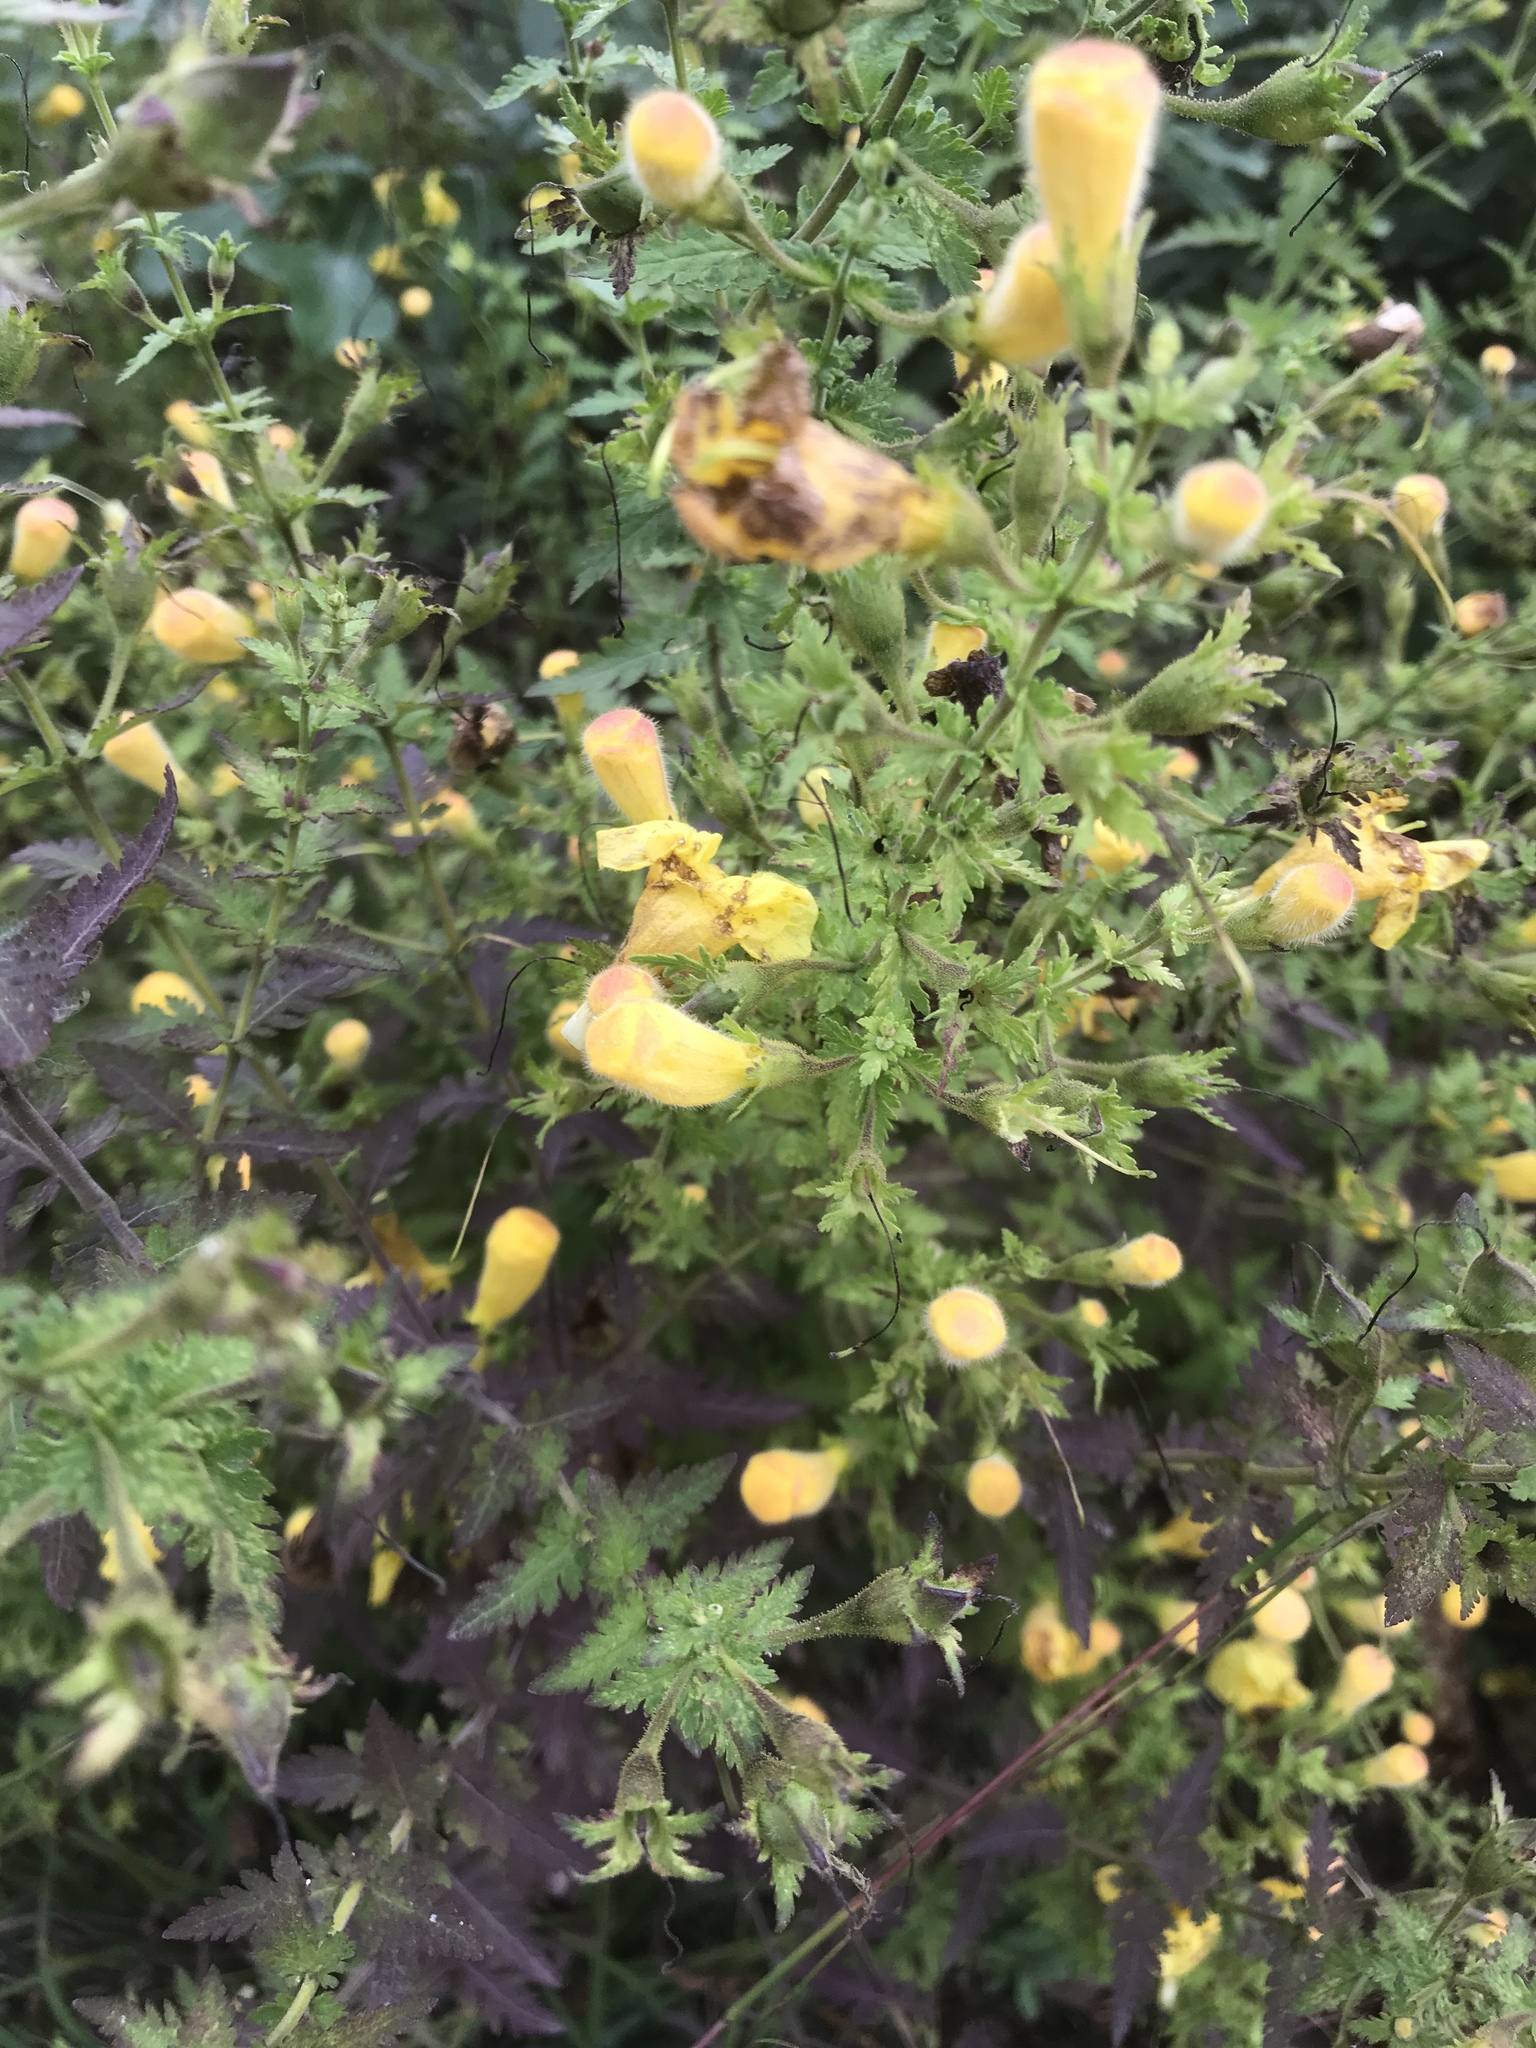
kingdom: Plantae
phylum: Tracheophyta
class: Magnoliopsida
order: Lamiales
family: Orobanchaceae
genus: Aureolaria
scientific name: Aureolaria pedicularia
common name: Annual false foxglove
